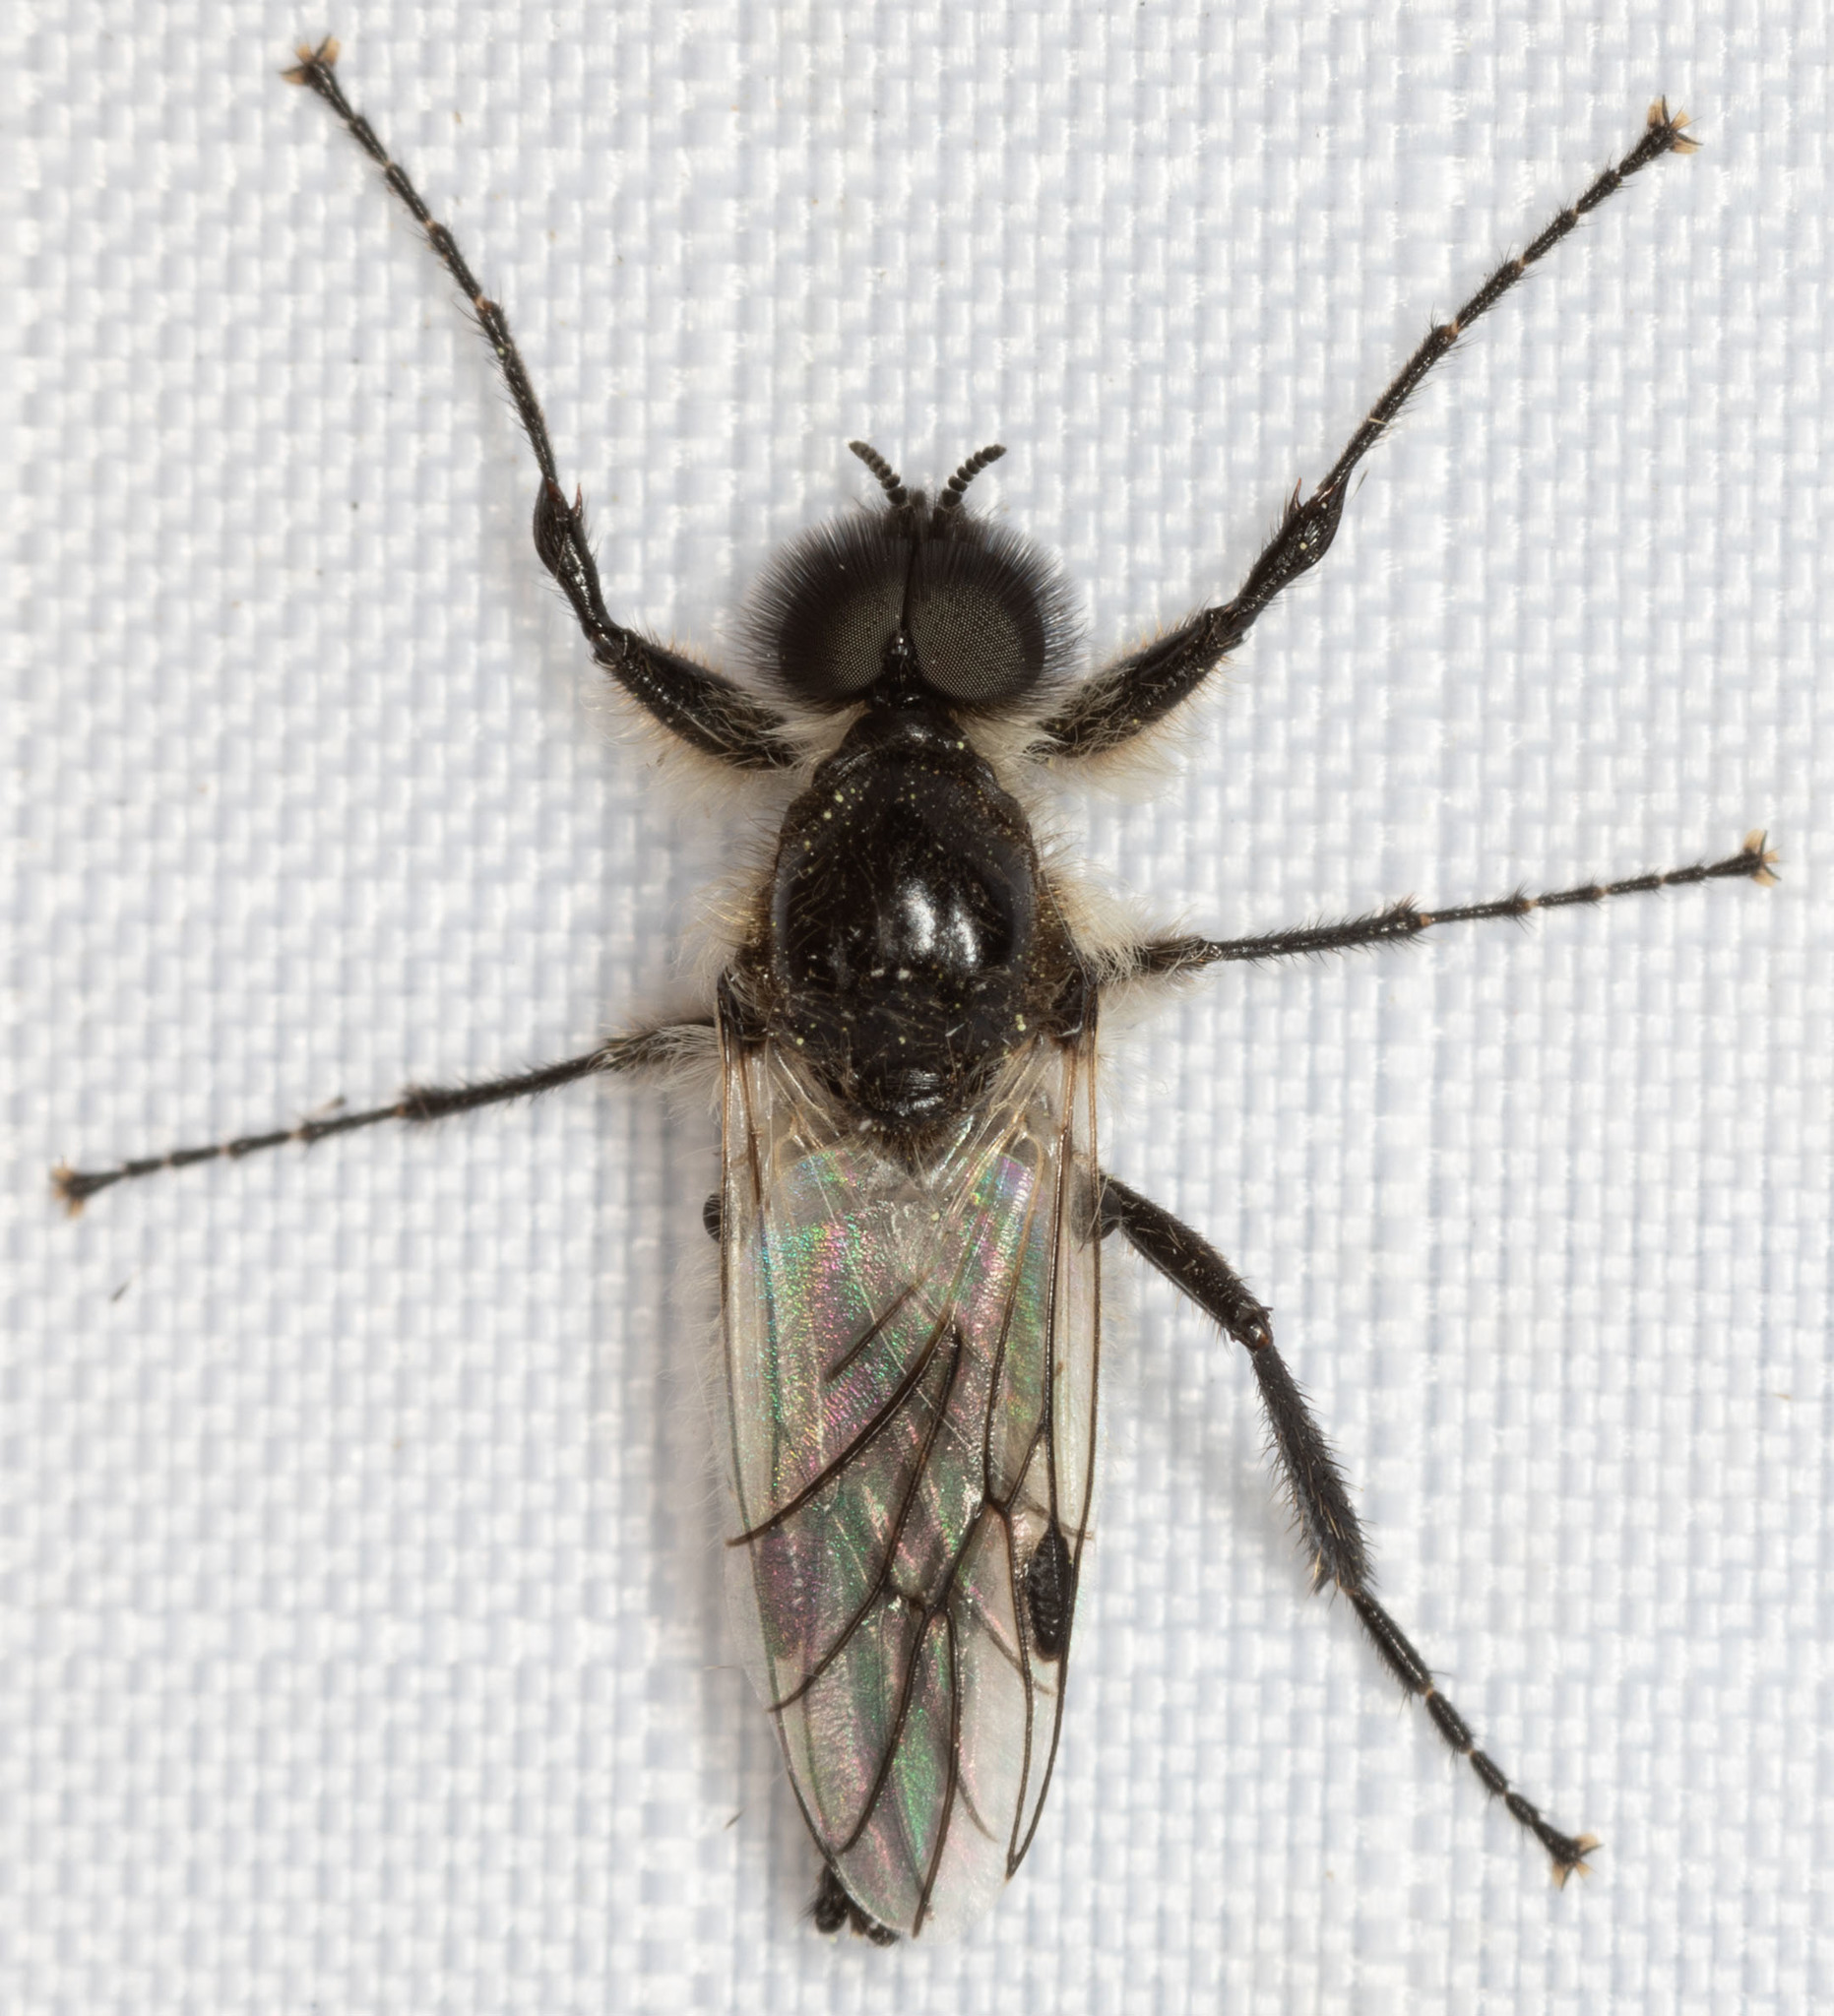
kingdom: Animalia
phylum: Arthropoda
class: Insecta
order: Diptera
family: Bibionidae
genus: Bibio
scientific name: Bibio albipennis
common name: White-winged march fly
